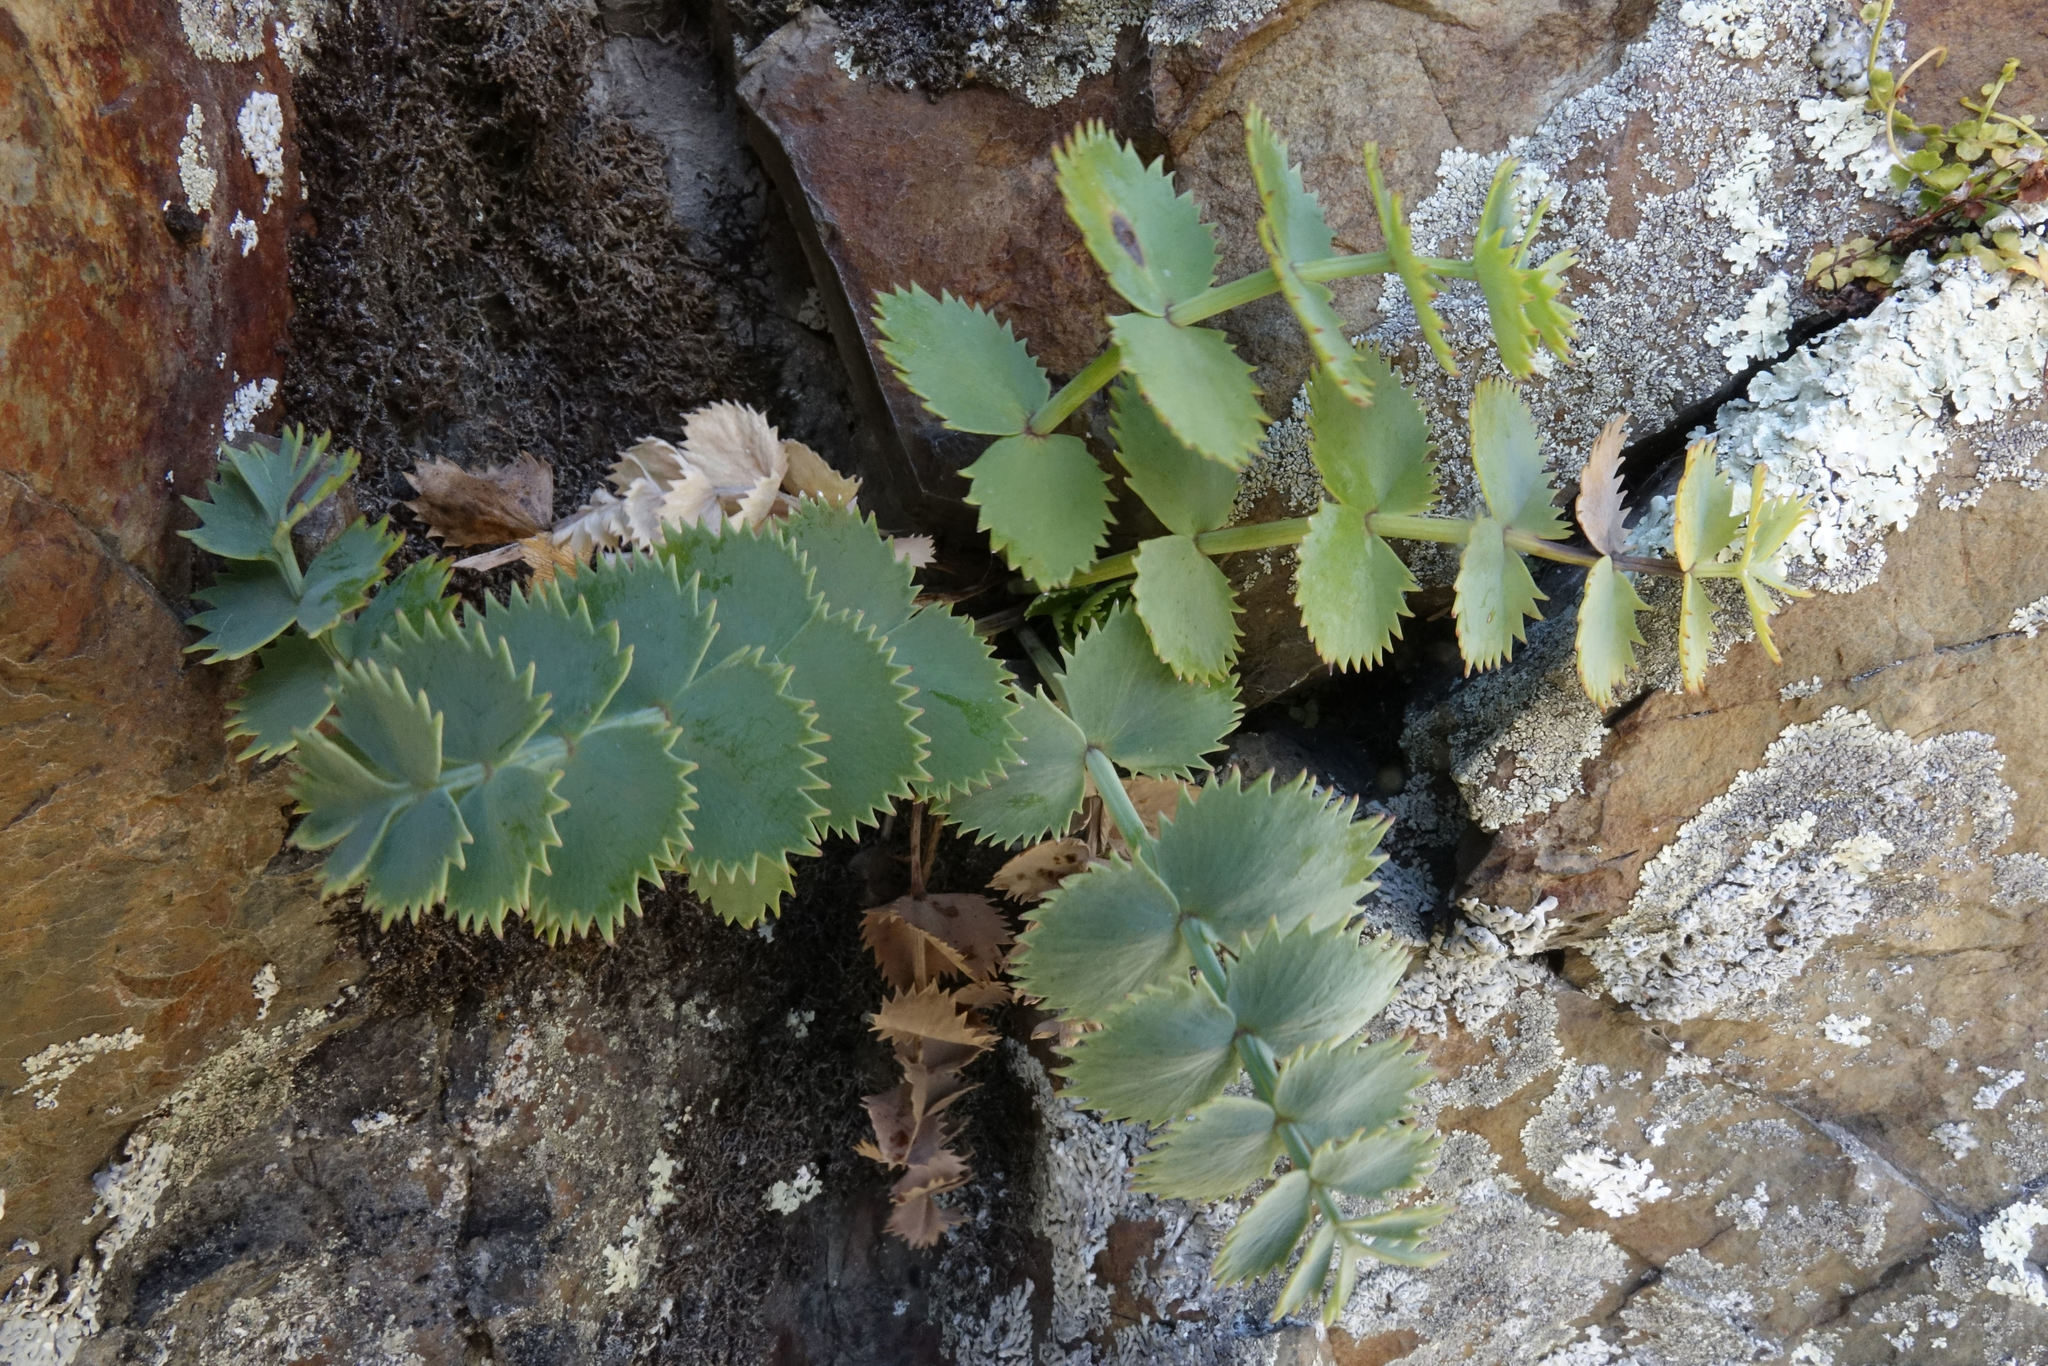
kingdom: Plantae
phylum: Tracheophyta
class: Magnoliopsida
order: Apiales
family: Apiaceae
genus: Gingidia
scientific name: Gingidia grisea
